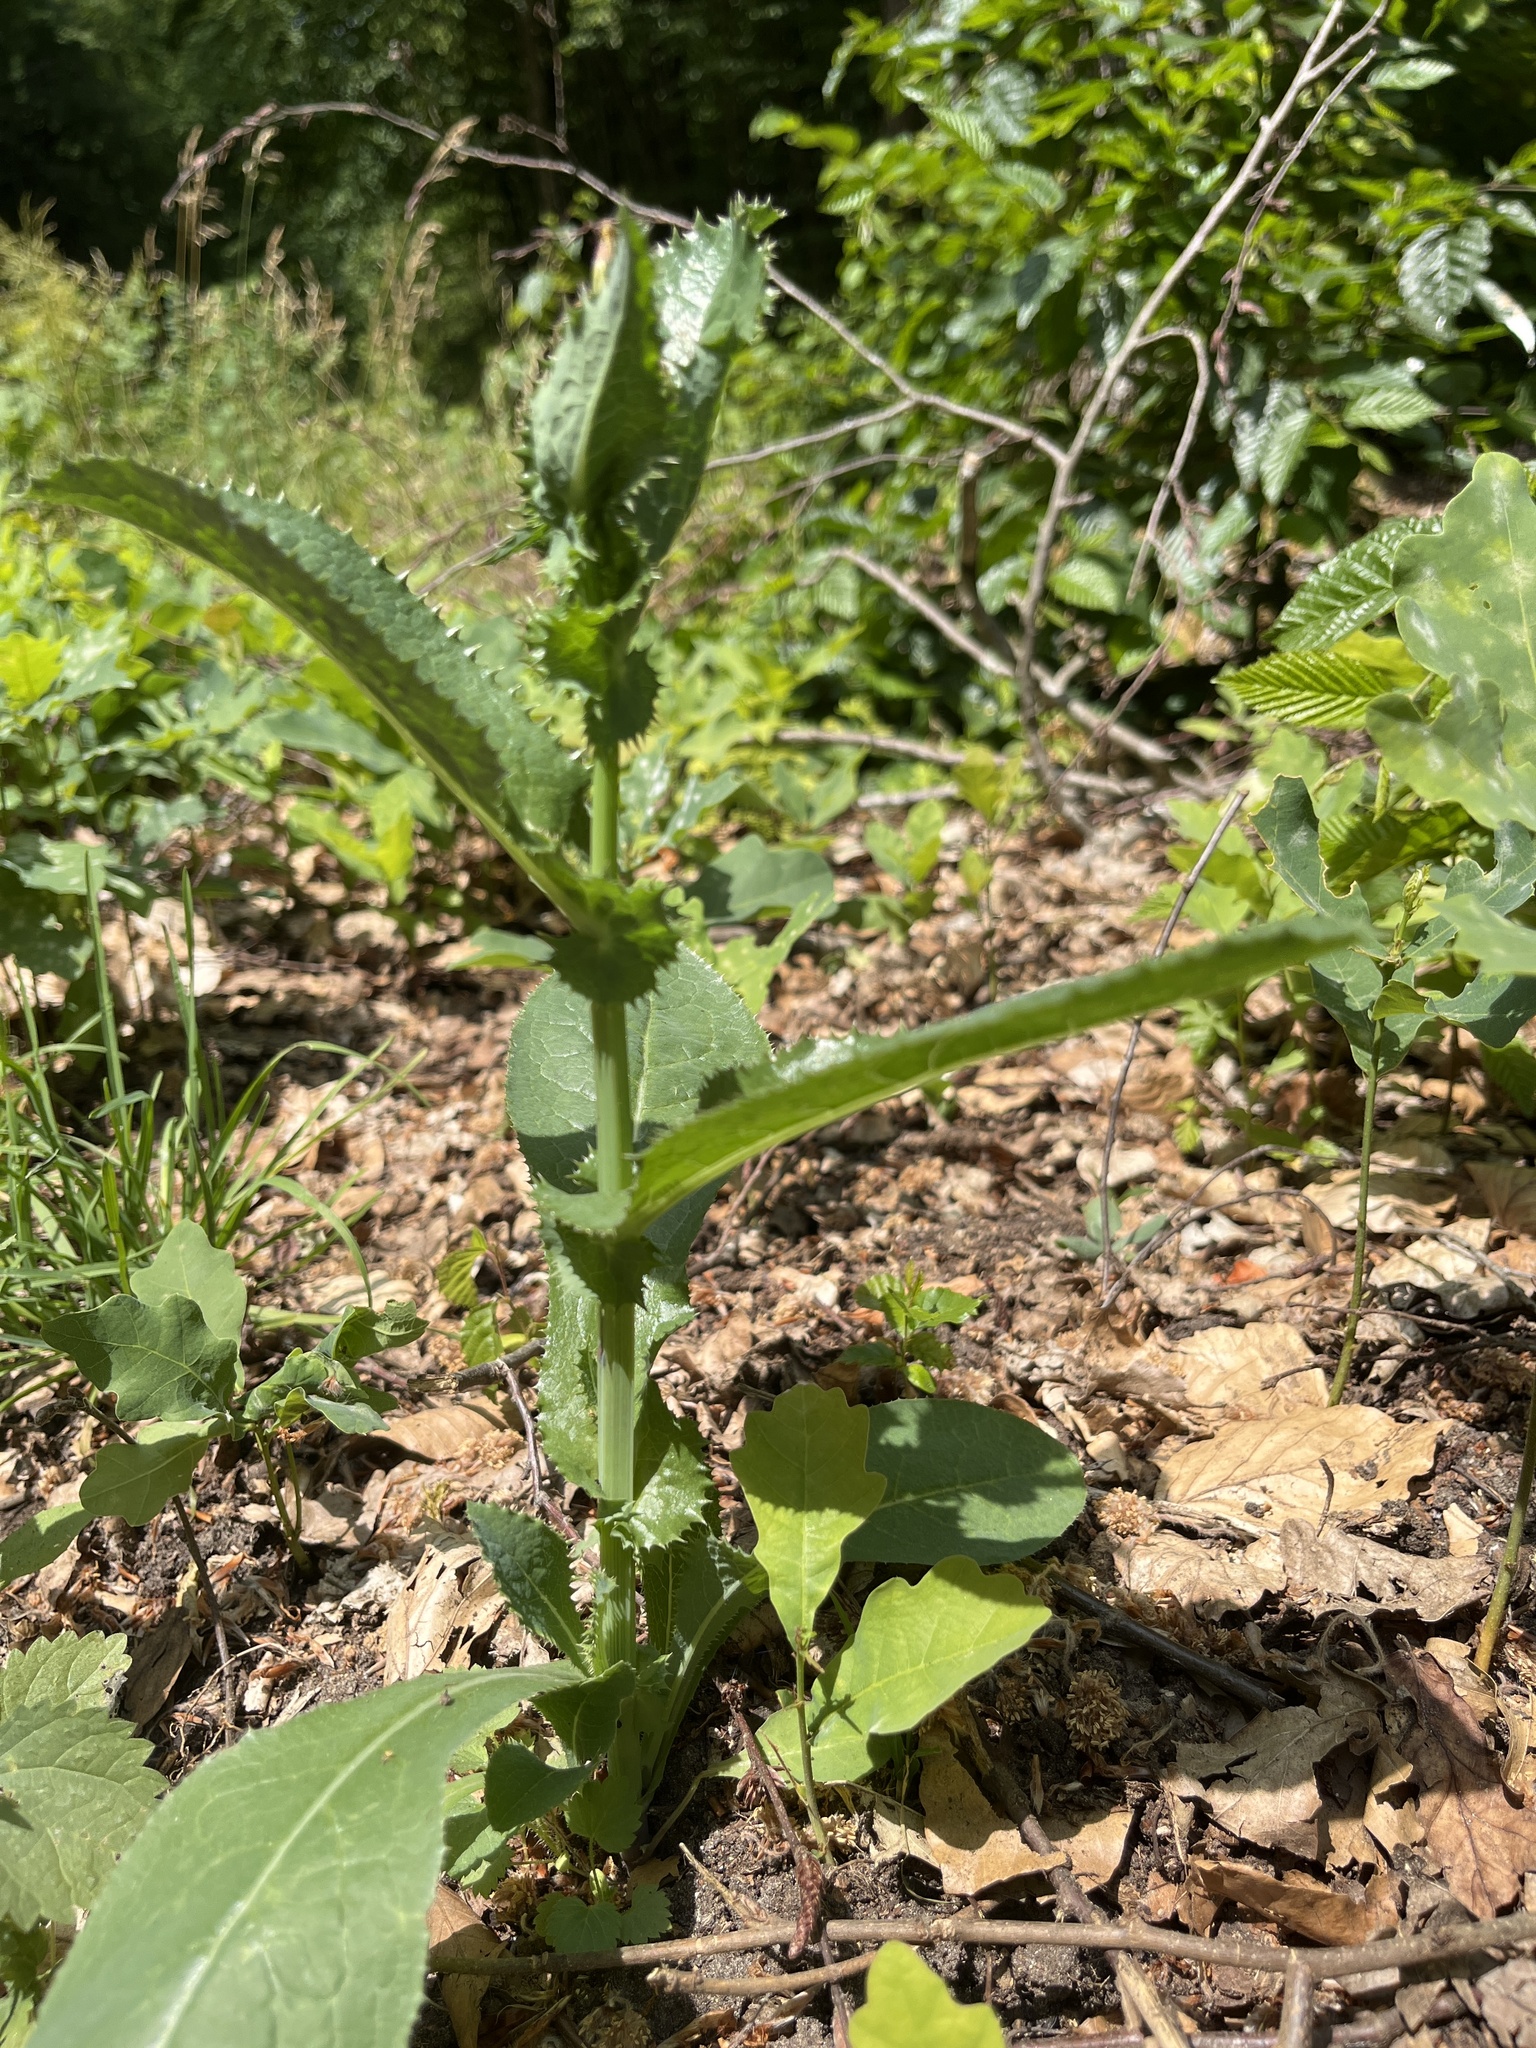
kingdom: Plantae
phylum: Tracheophyta
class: Magnoliopsida
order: Asterales
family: Asteraceae
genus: Sonchus
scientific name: Sonchus asper
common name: Prickly sow-thistle
